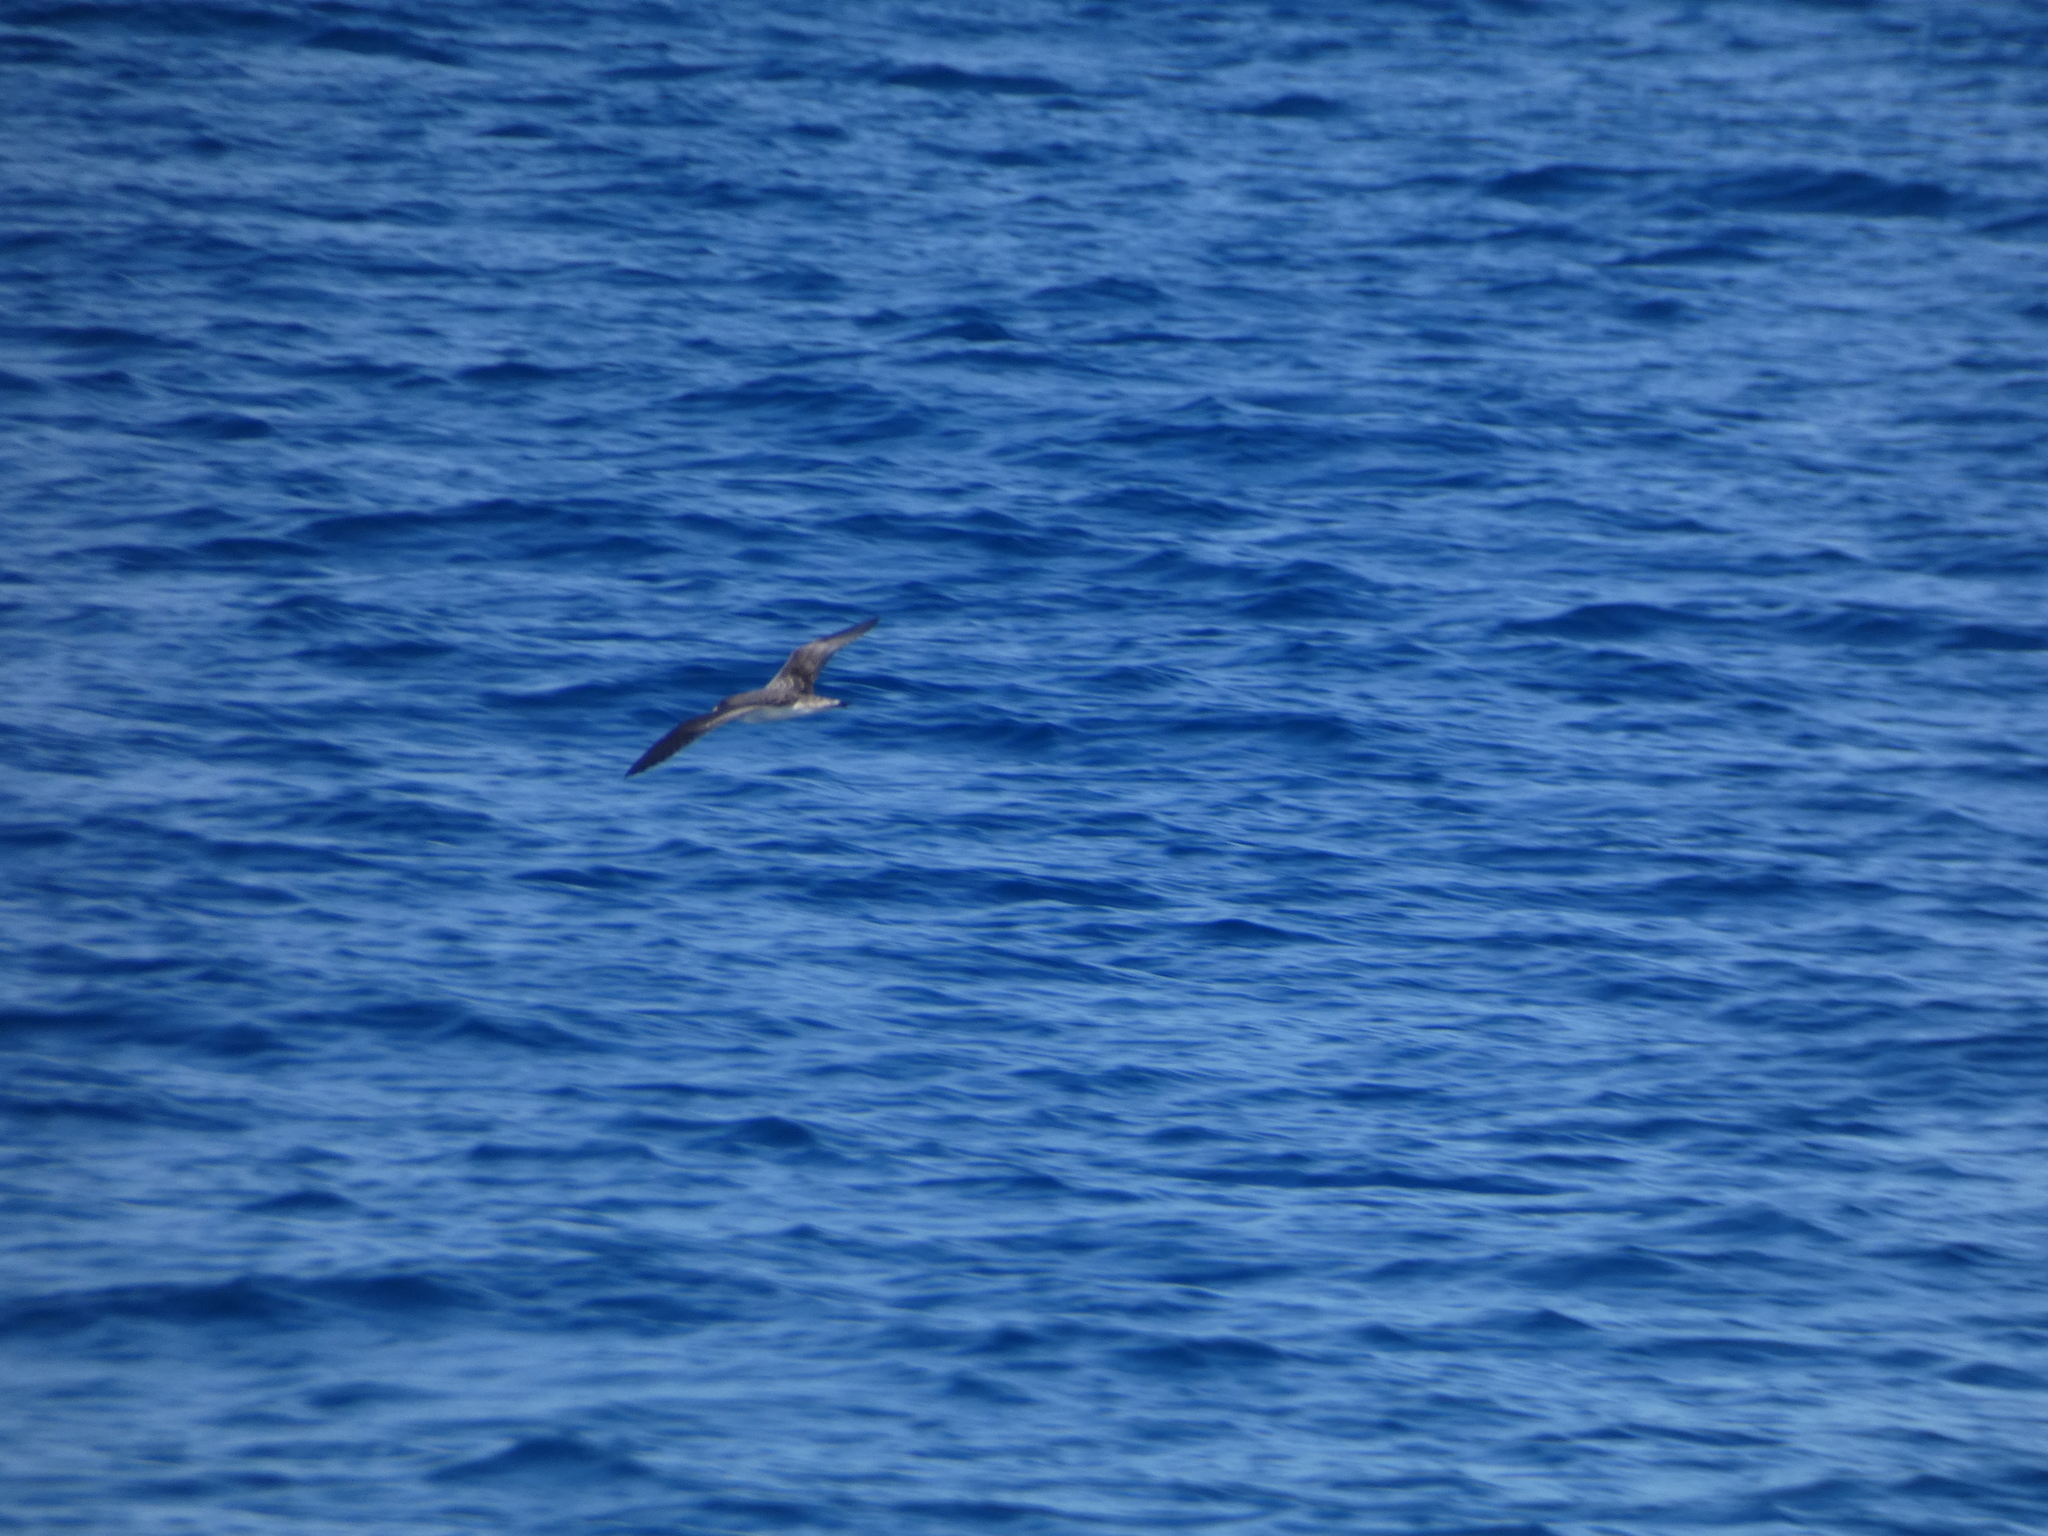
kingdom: Animalia
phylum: Chordata
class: Aves
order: Procellariiformes
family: Procellariidae
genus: Calonectris
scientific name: Calonectris diomedea
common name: Cory's shearwater
